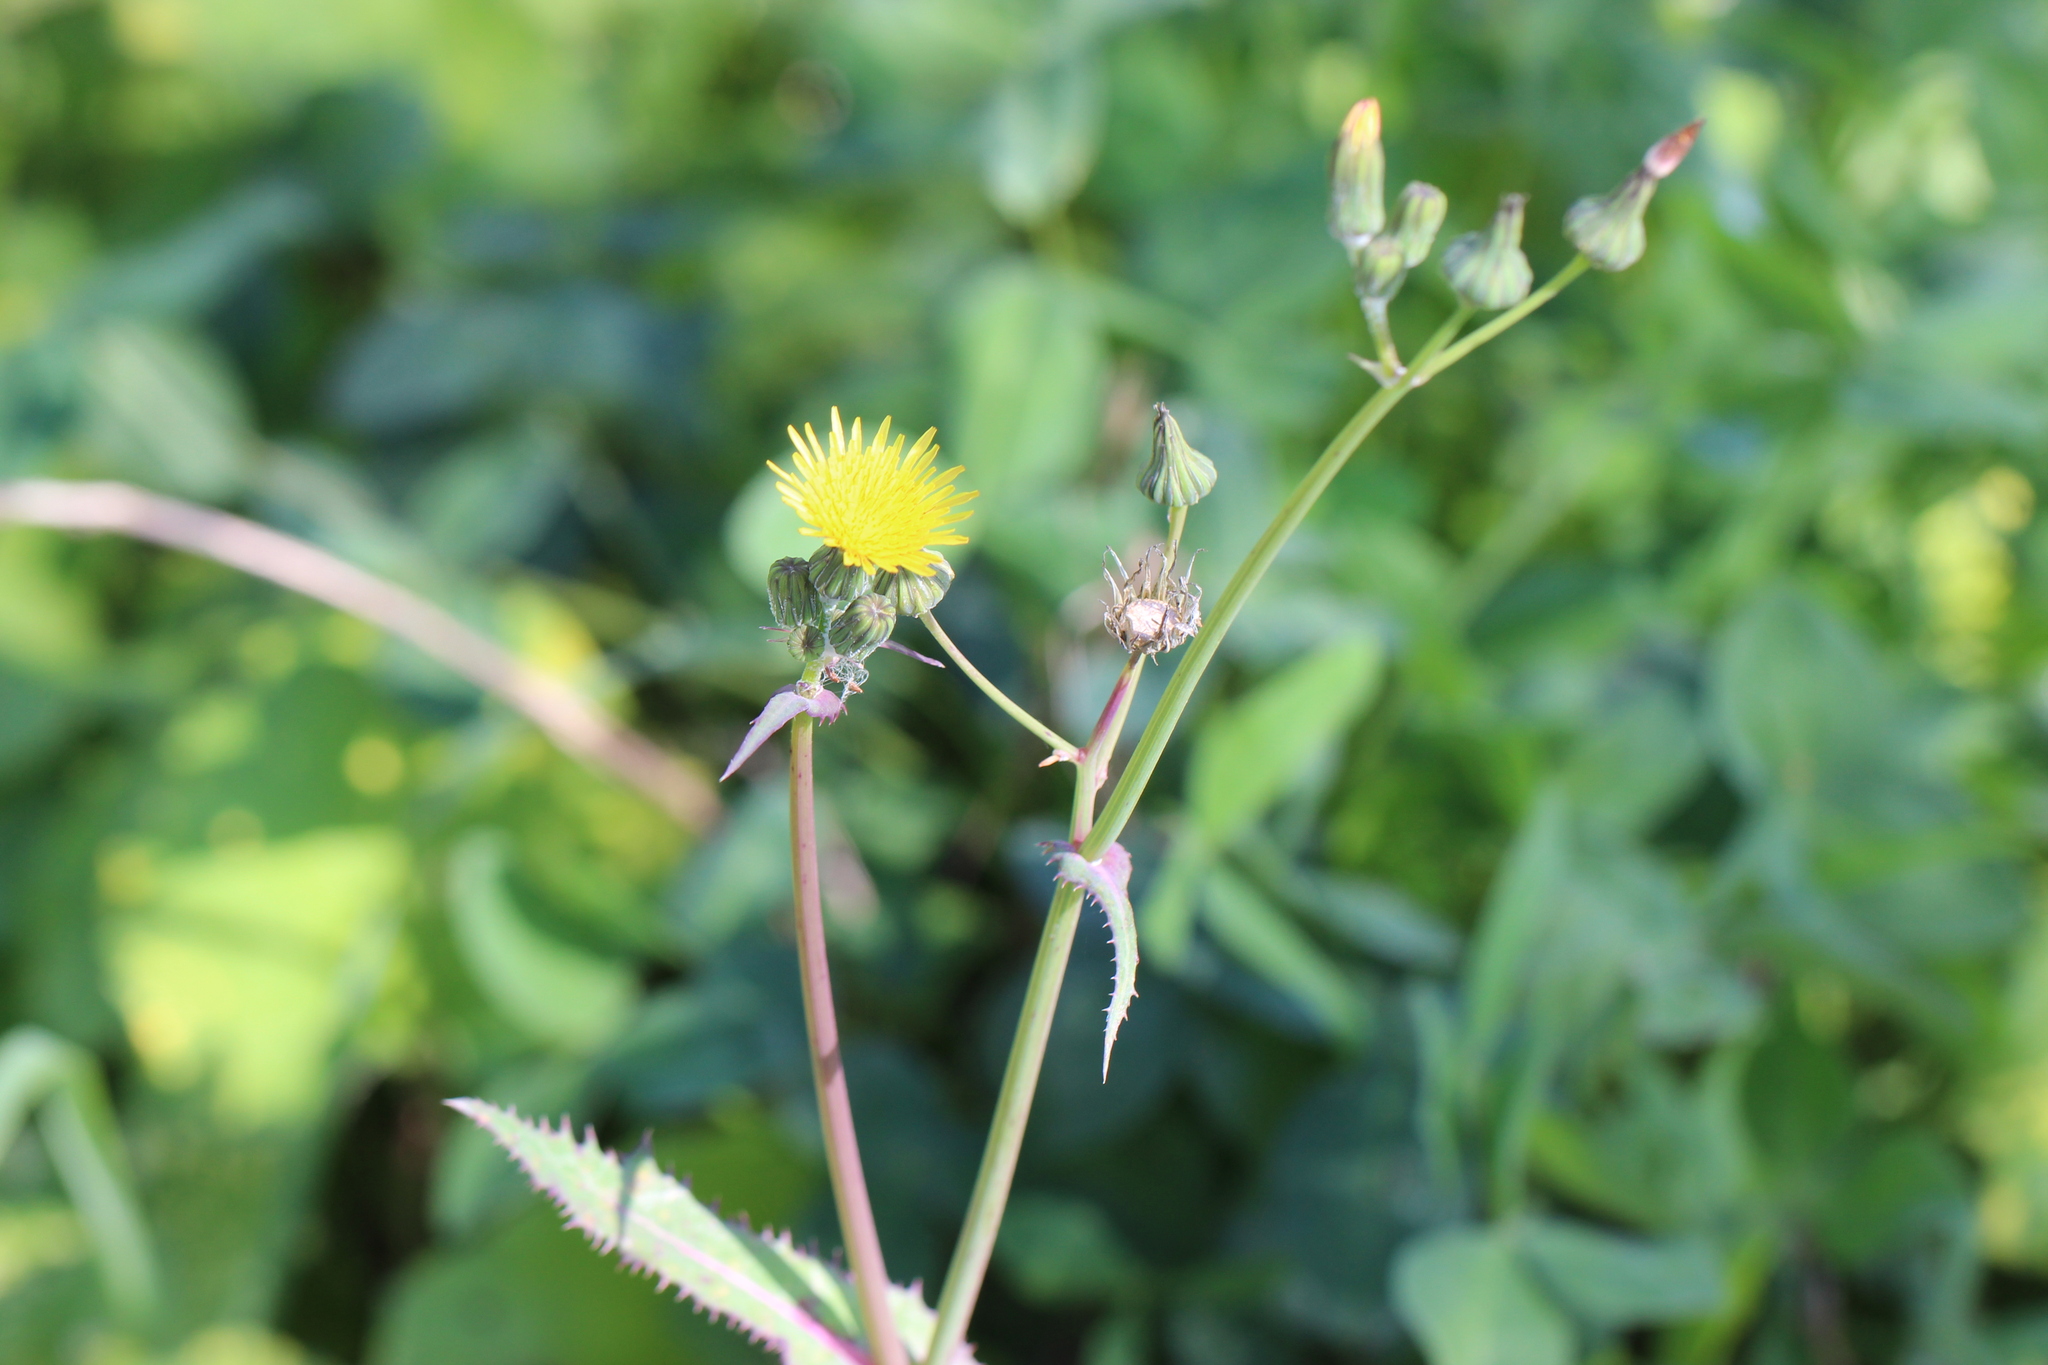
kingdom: Plantae
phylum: Tracheophyta
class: Magnoliopsida
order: Asterales
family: Asteraceae
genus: Sonchus
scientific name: Sonchus oleraceus
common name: Common sowthistle
